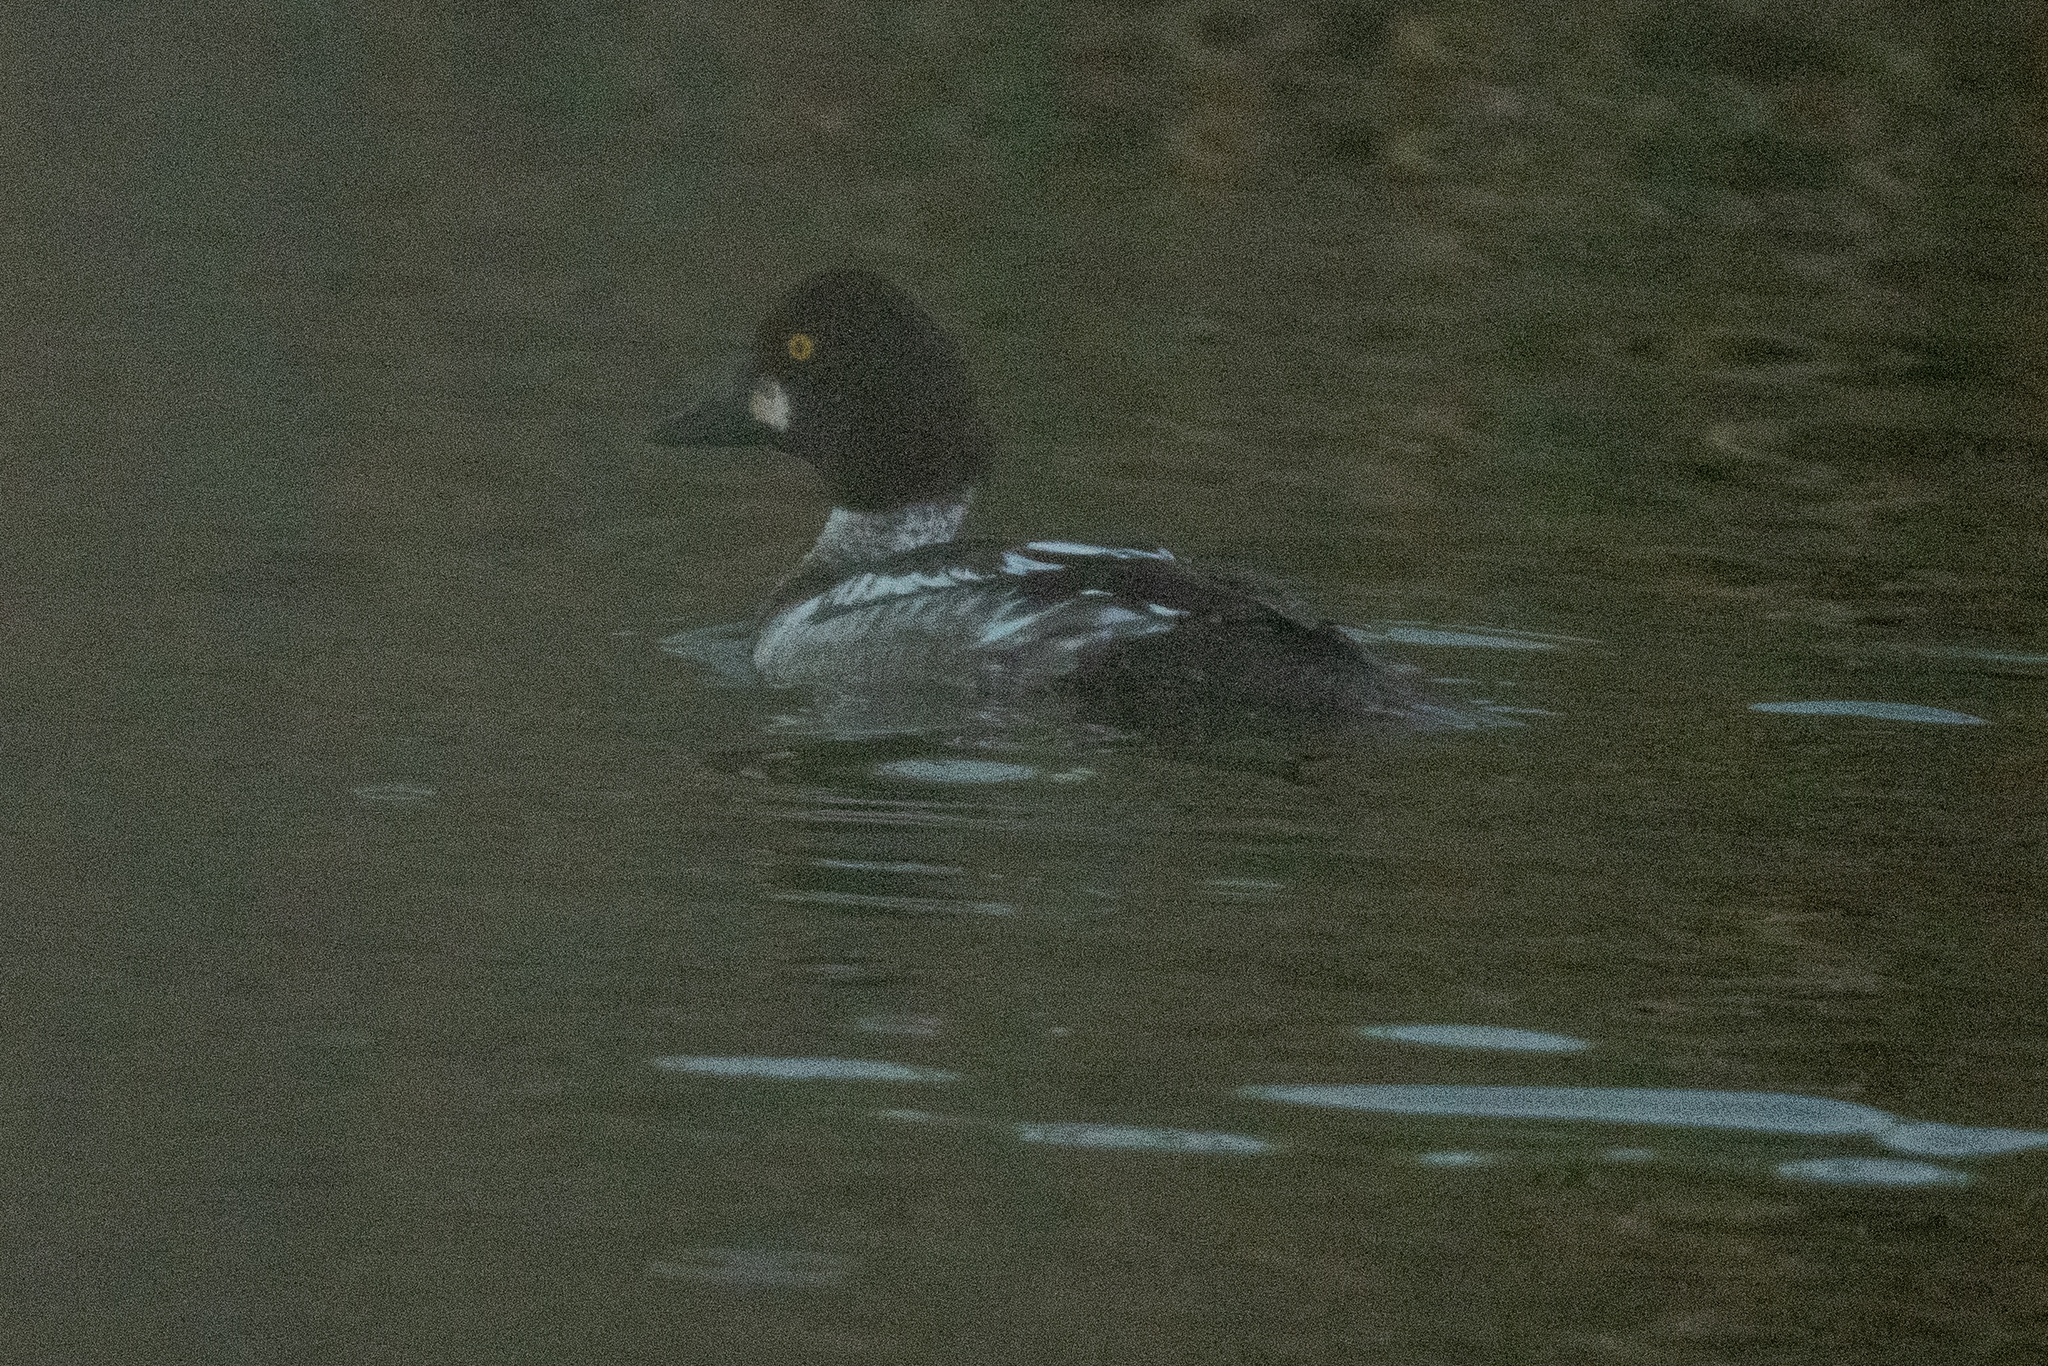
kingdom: Animalia
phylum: Chordata
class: Aves
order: Anseriformes
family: Anatidae
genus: Bucephala
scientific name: Bucephala clangula
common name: Common goldeneye
